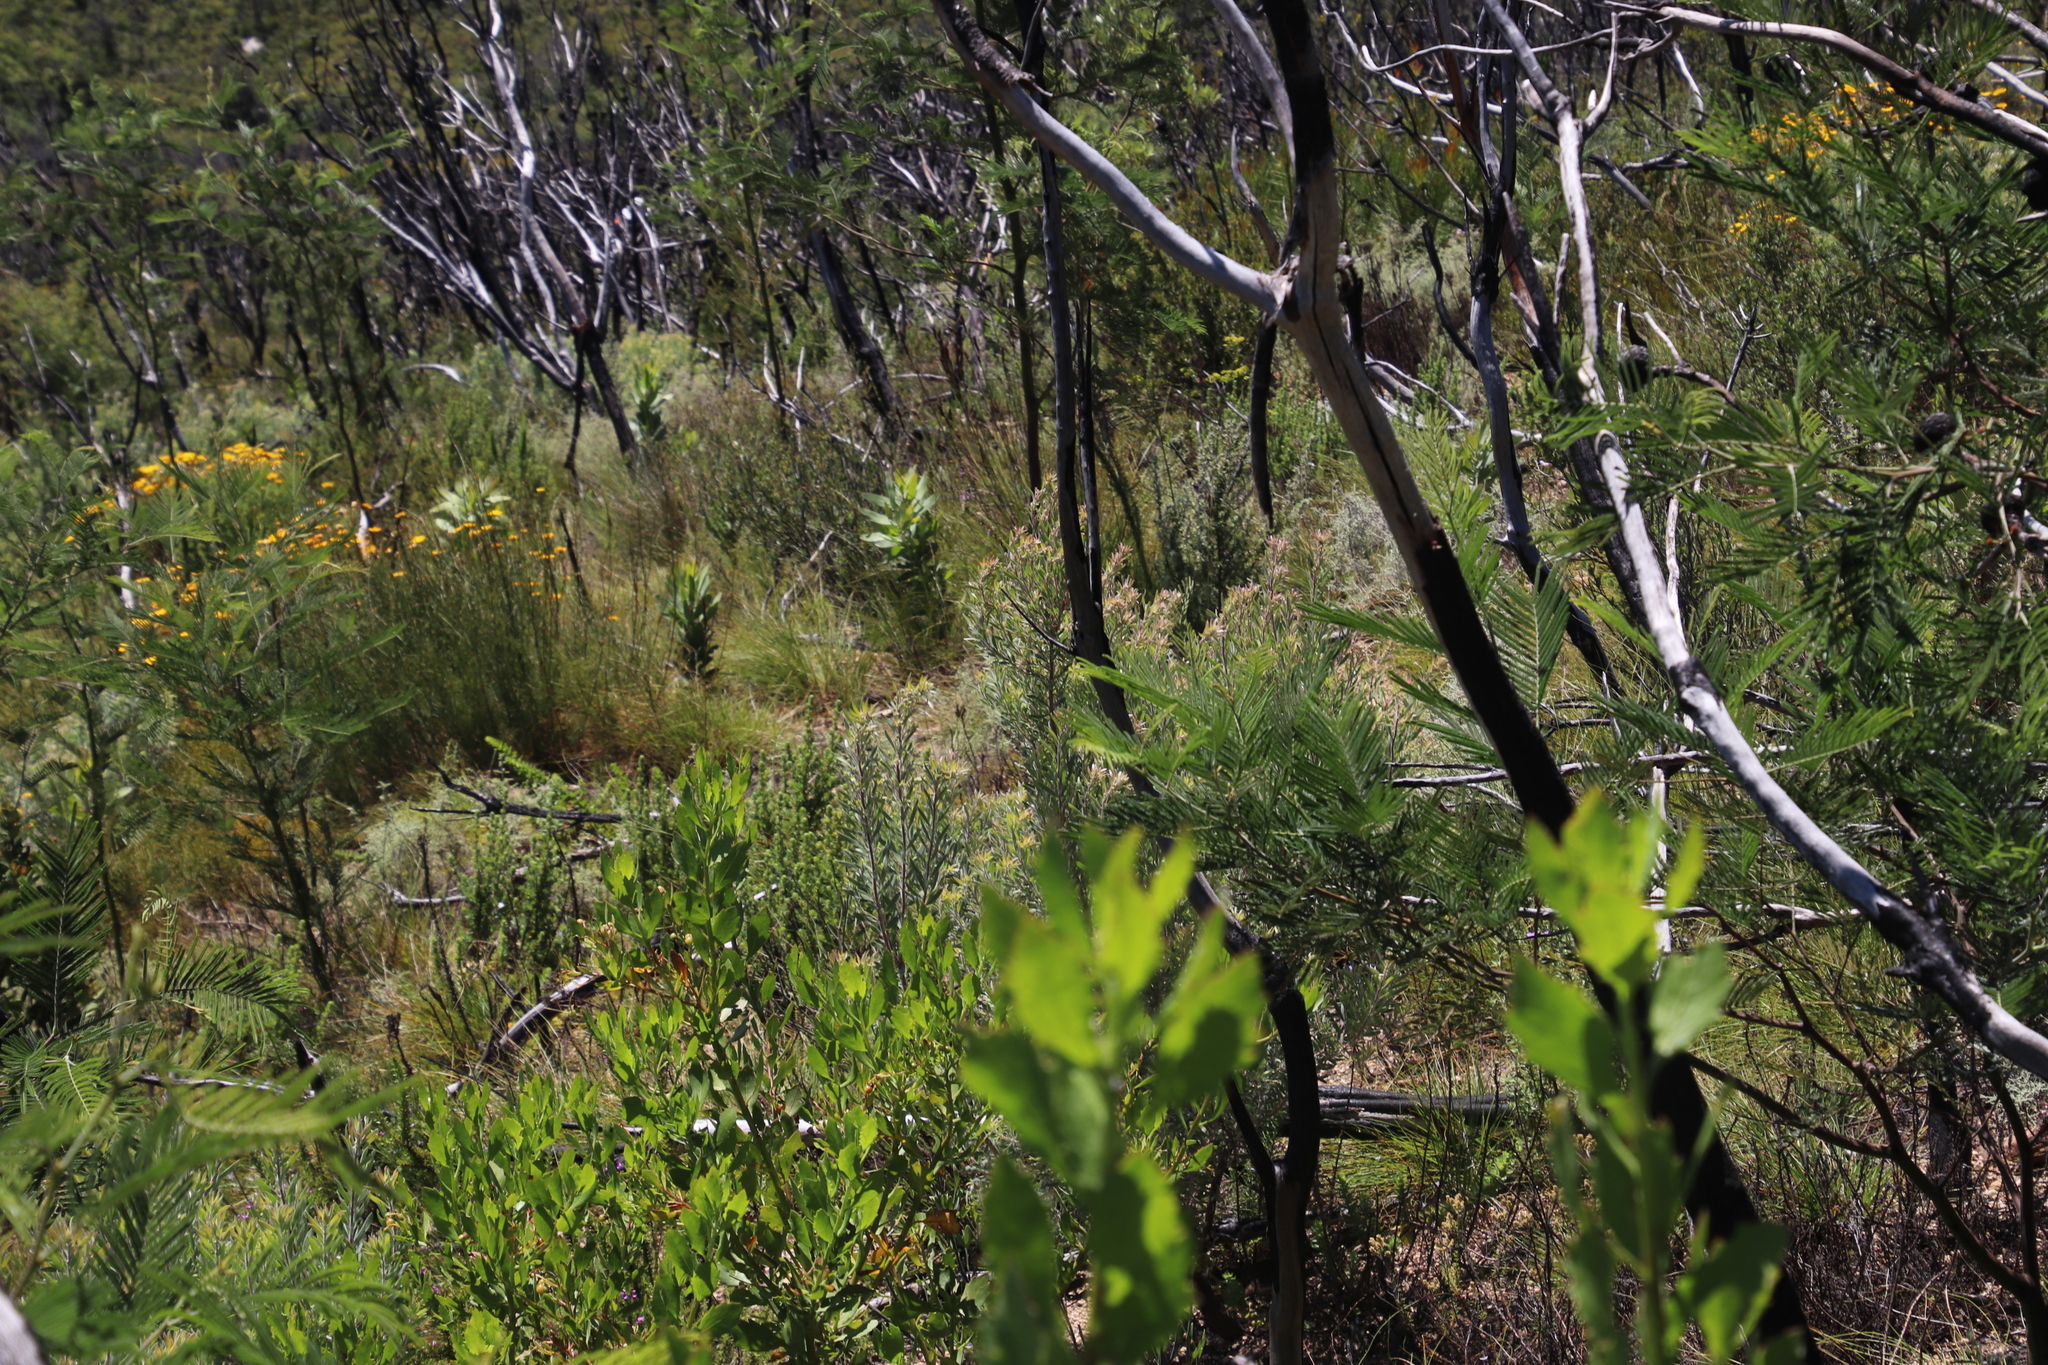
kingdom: Plantae
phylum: Tracheophyta
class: Magnoliopsida
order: Fabales
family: Fabaceae
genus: Acacia
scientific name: Acacia mearnsii
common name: Black wattle
